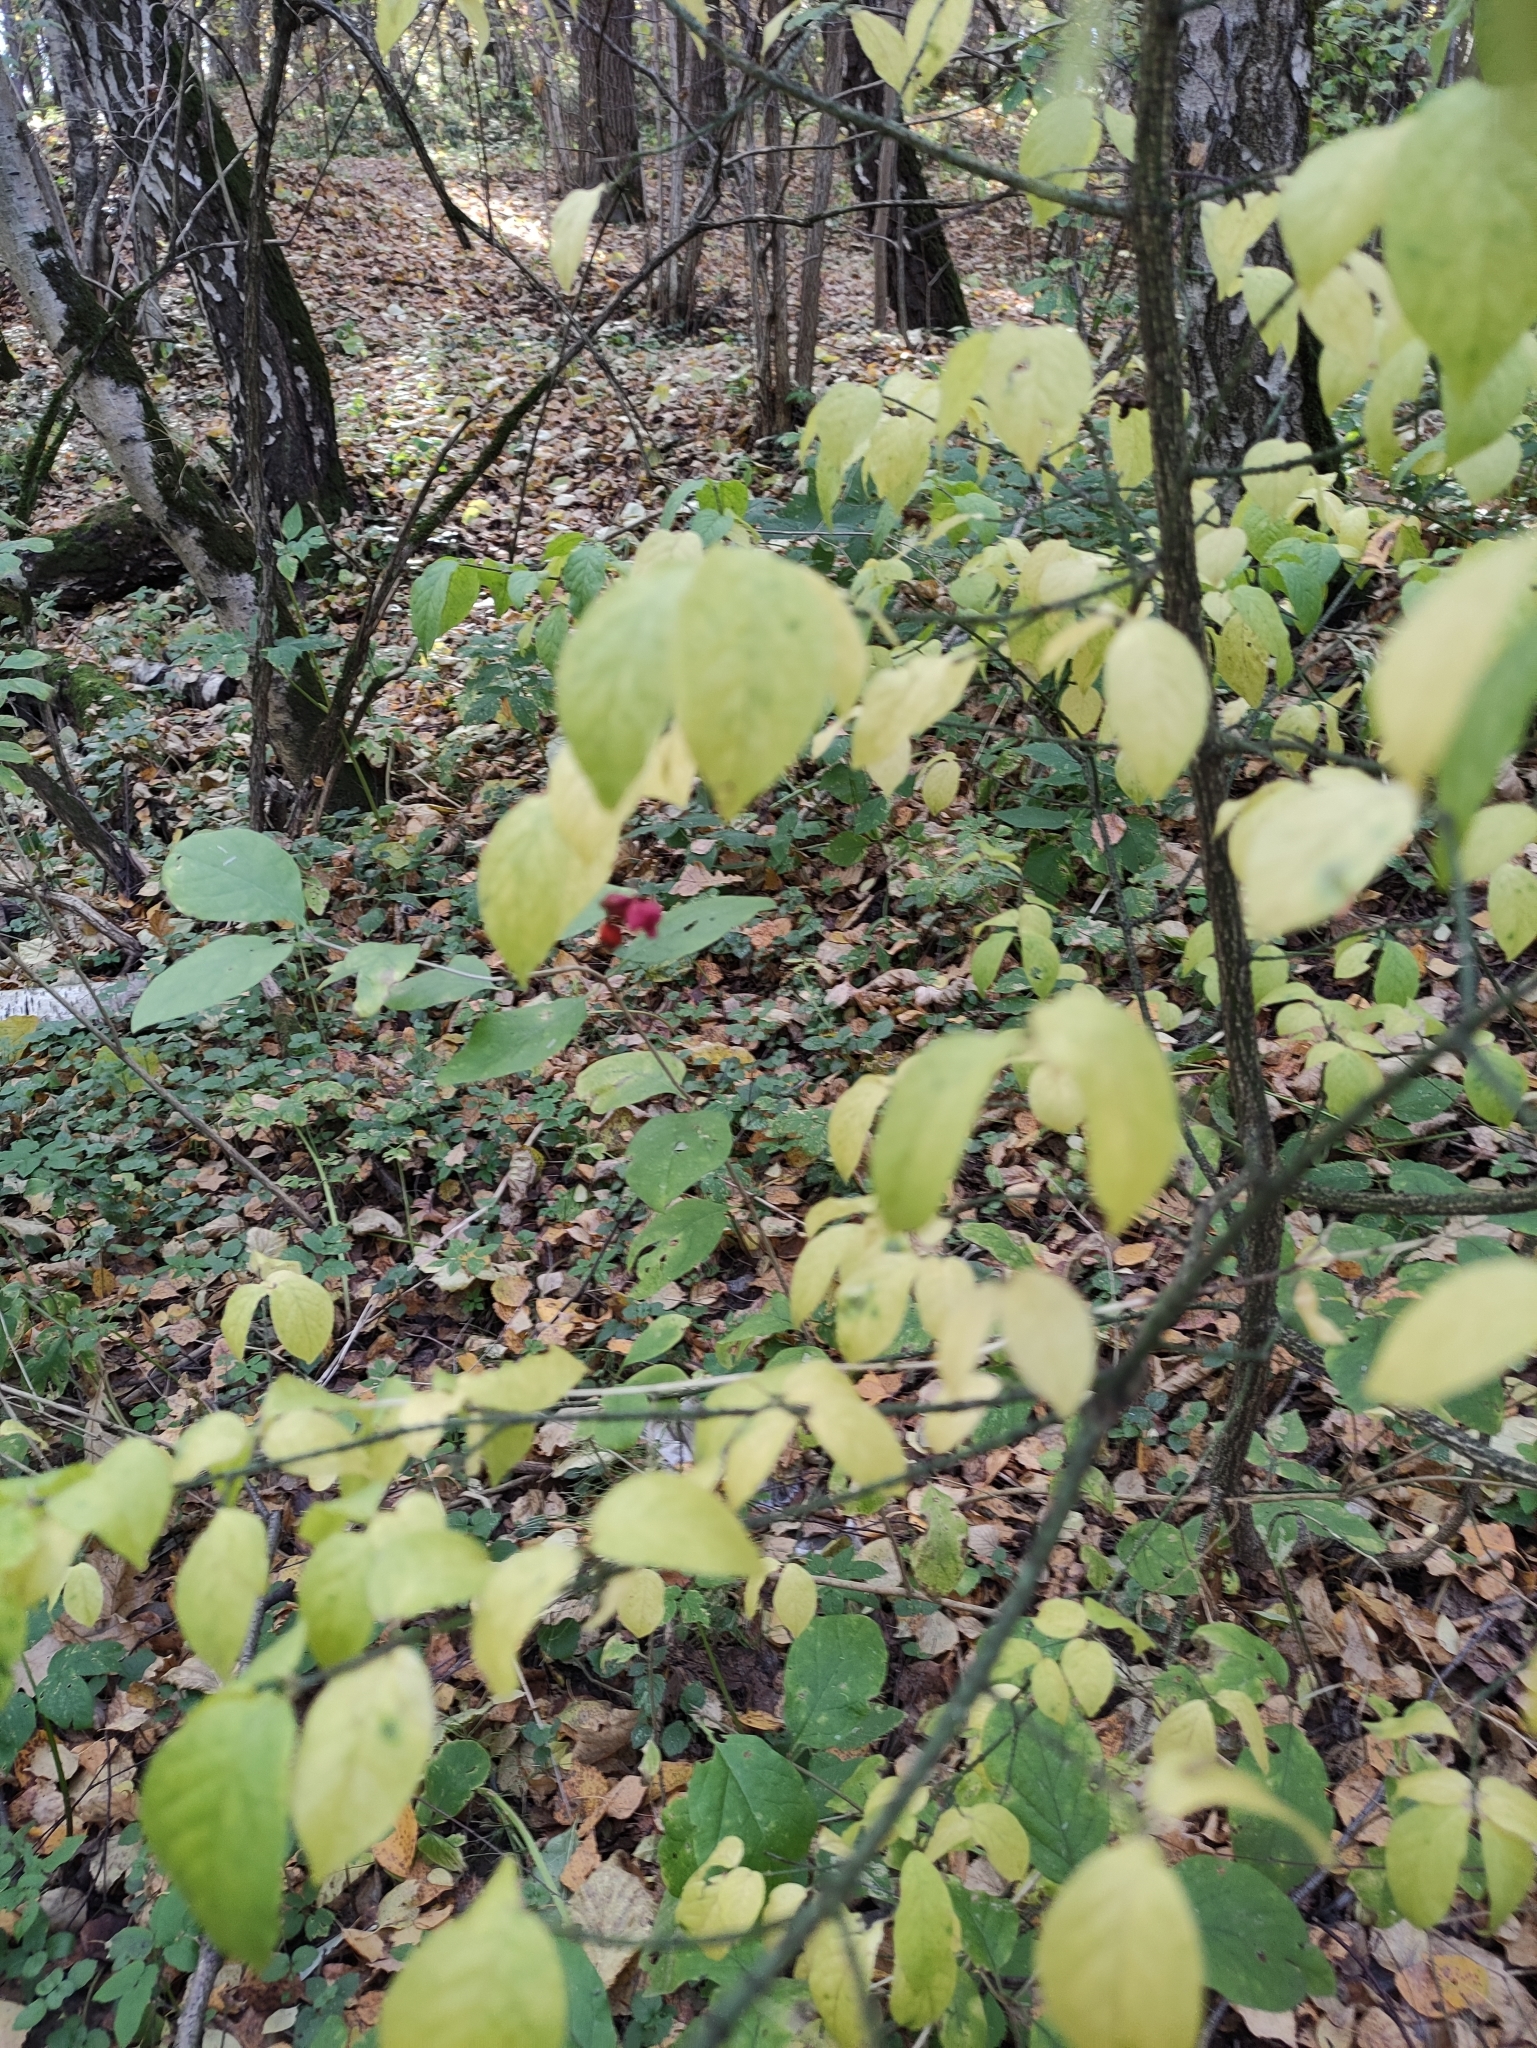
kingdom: Plantae
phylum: Tracheophyta
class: Magnoliopsida
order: Celastrales
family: Celastraceae
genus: Euonymus
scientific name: Euonymus verrucosus
